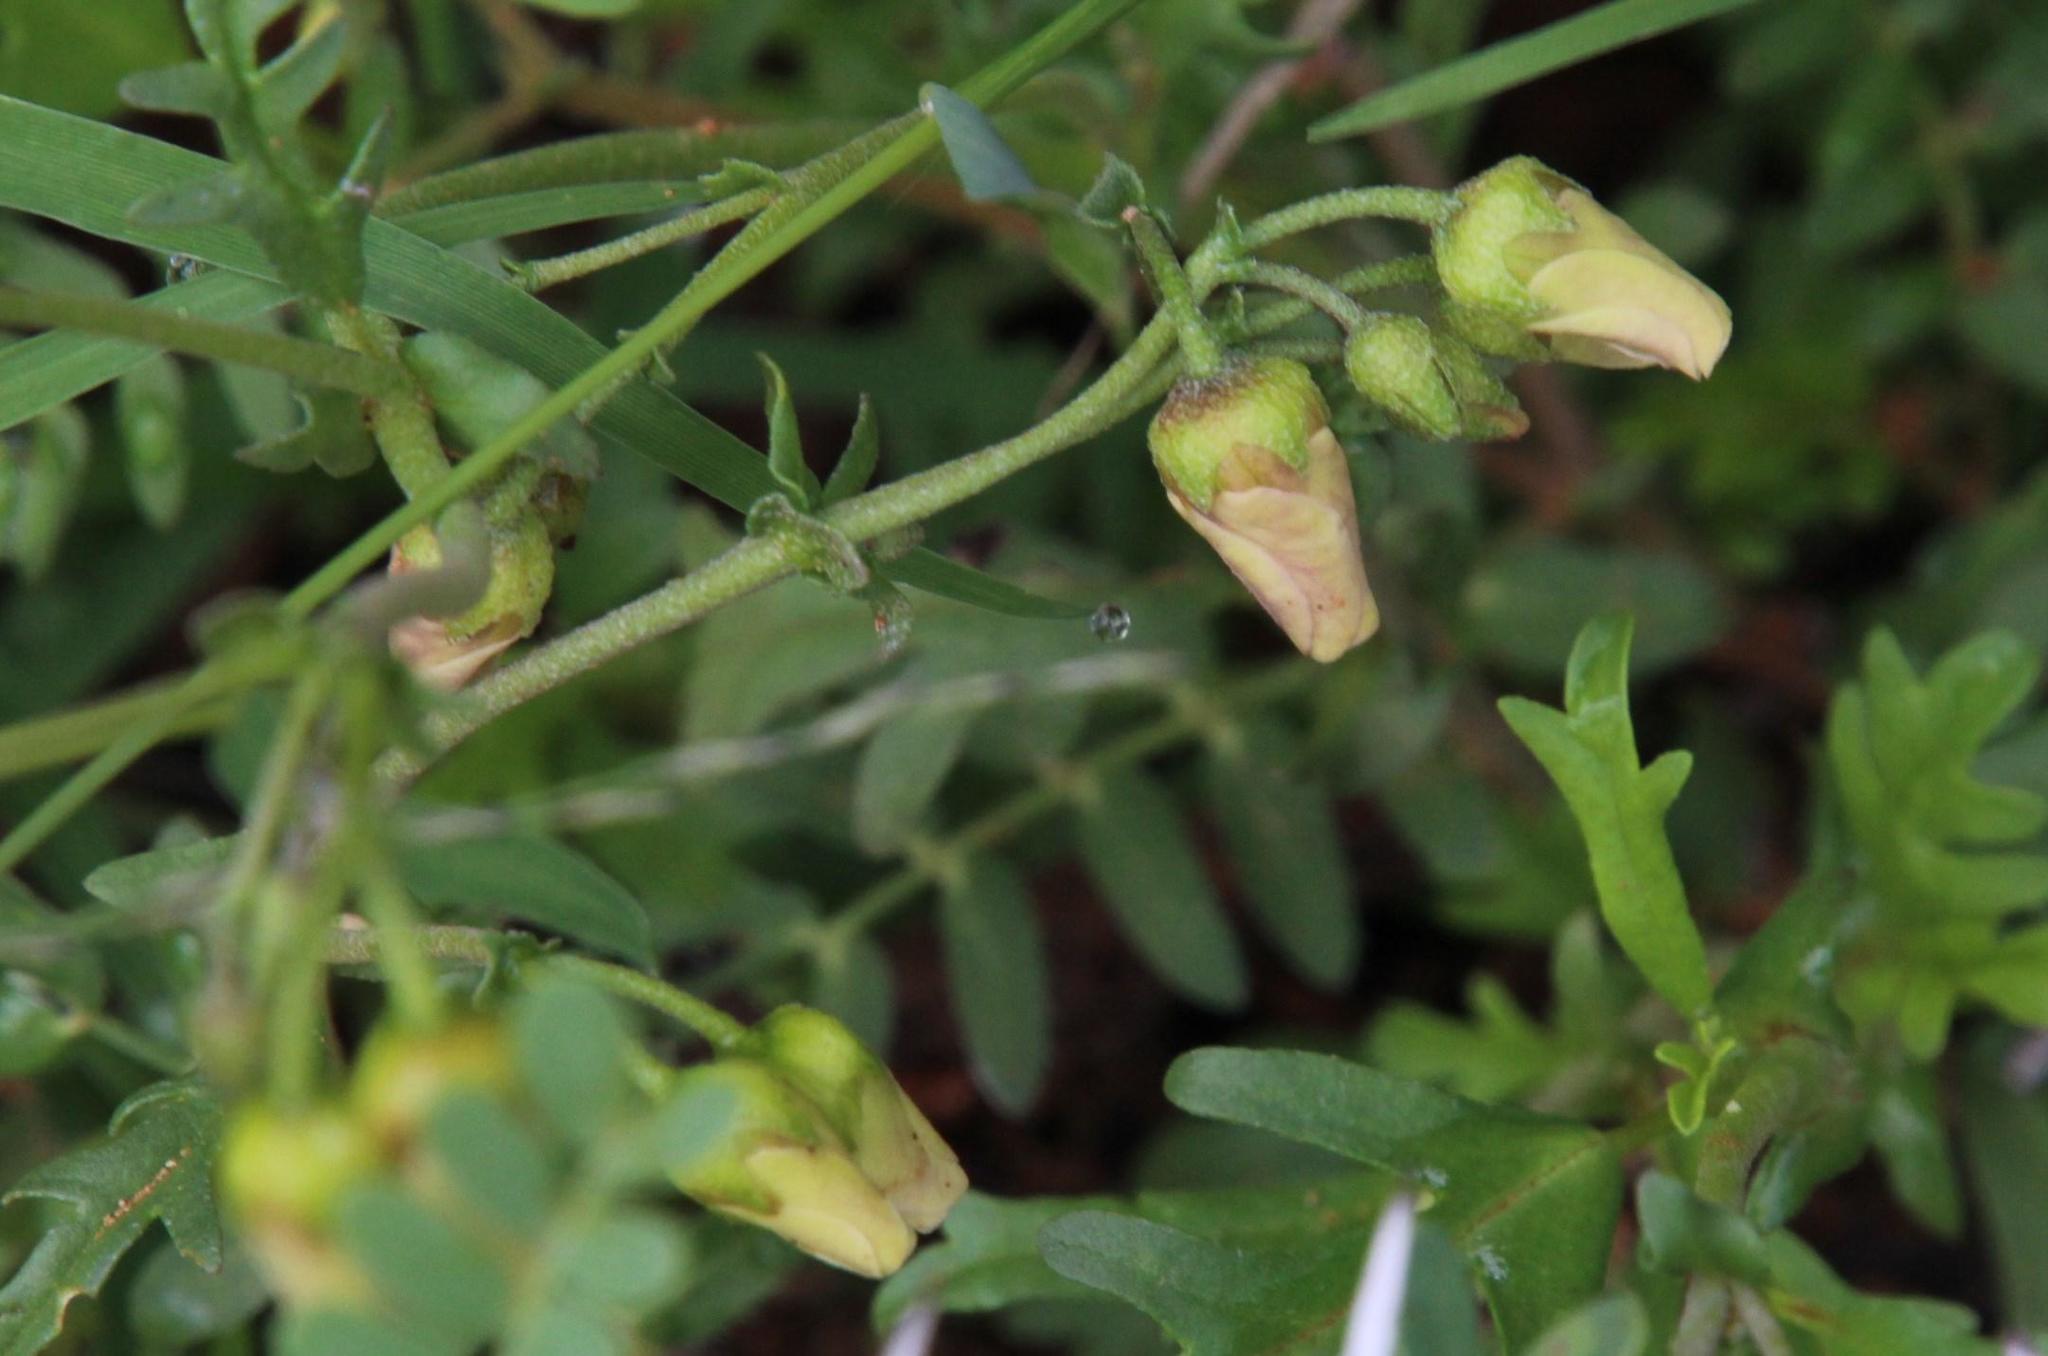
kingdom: Plantae
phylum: Tracheophyta
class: Magnoliopsida
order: Malvales
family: Malvaceae
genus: Hermannia
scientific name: Hermannia pulverata
